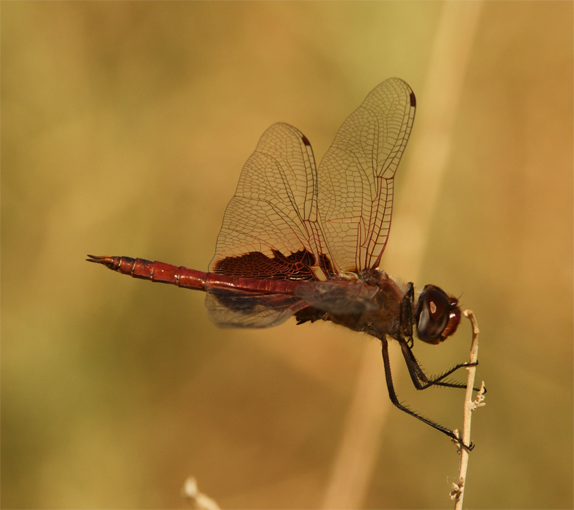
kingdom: Animalia
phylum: Arthropoda
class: Insecta
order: Odonata
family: Libellulidae
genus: Tramea
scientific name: Tramea onusta
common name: Red saddlebags
